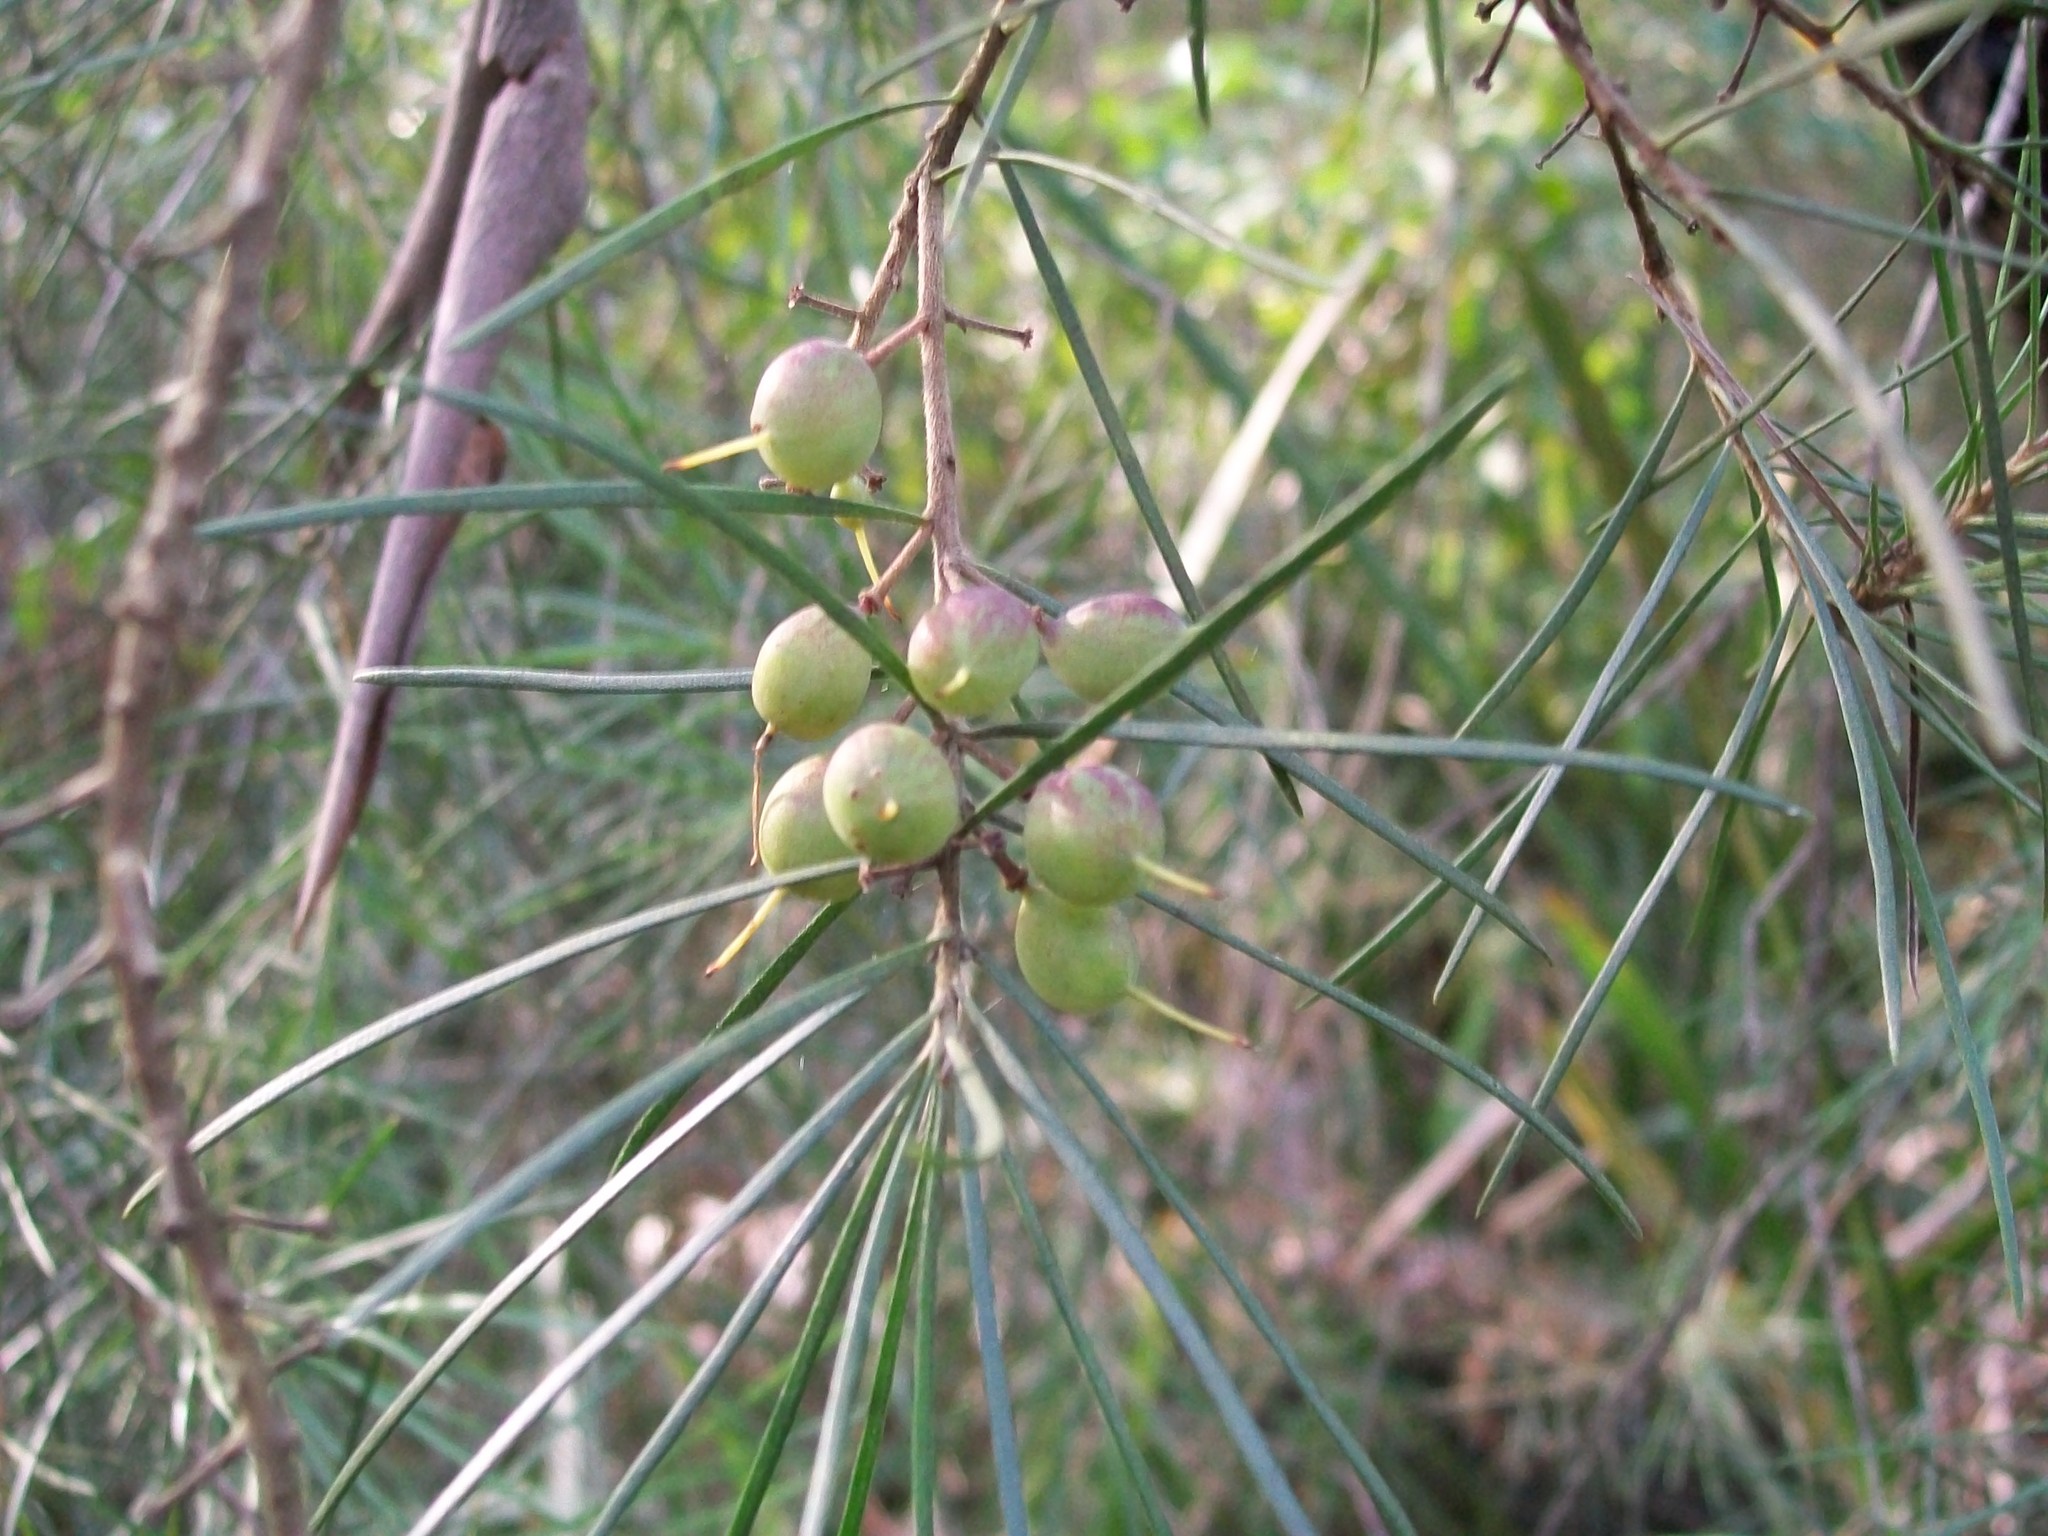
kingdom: Plantae
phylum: Tracheophyta
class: Magnoliopsida
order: Proteales
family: Proteaceae
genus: Persoonia
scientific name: Persoonia linearis
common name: Narrow-leaf geebung
